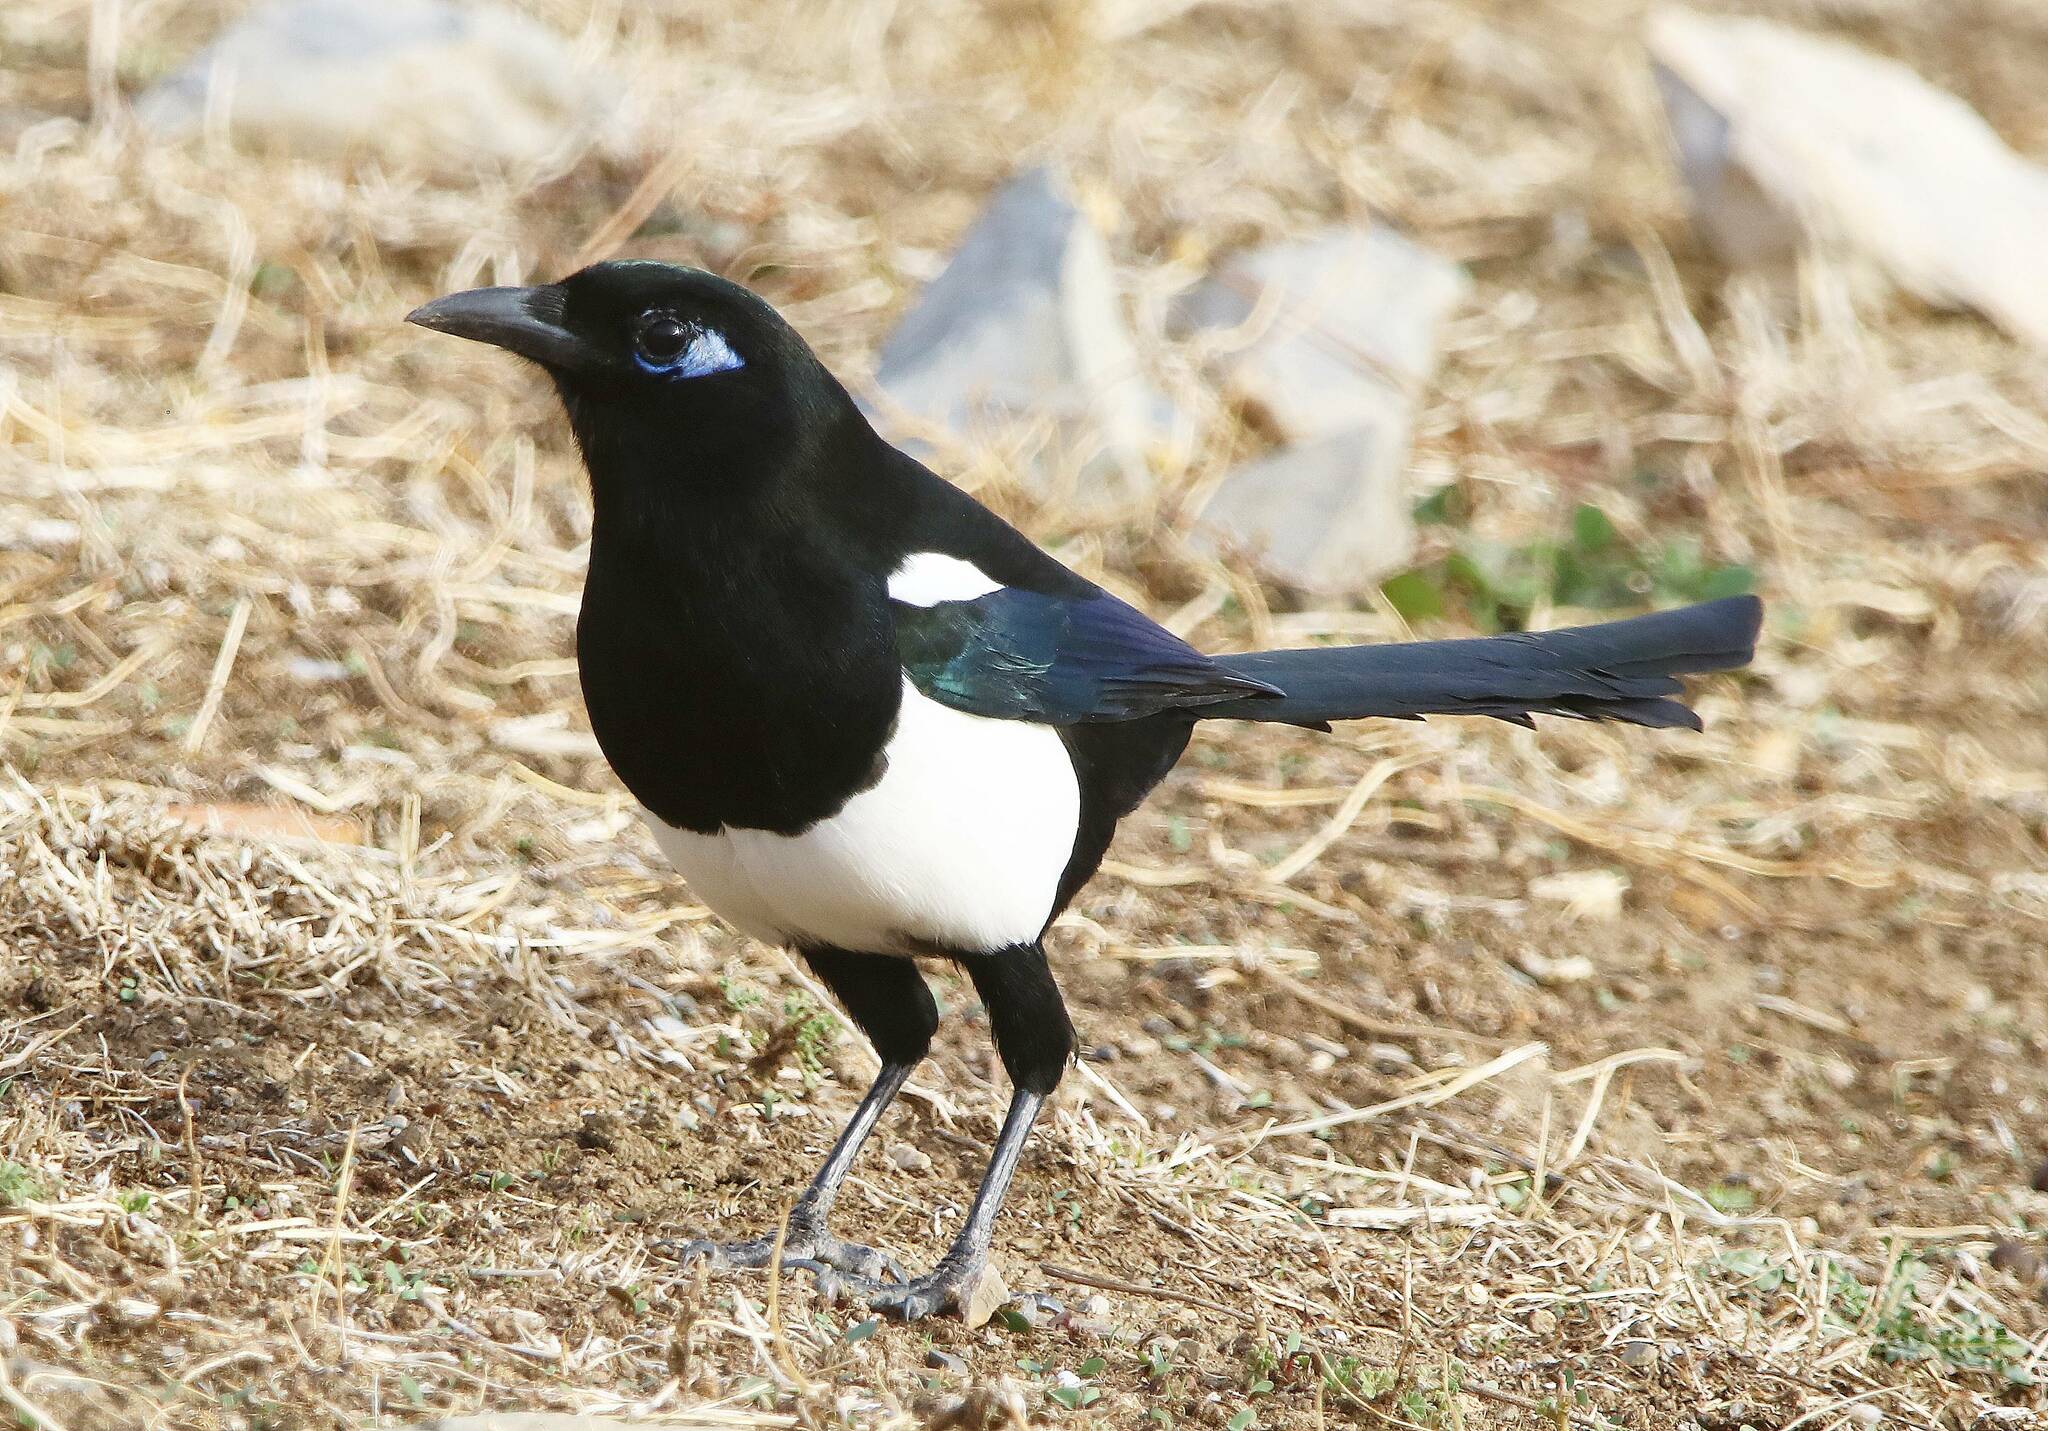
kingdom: Animalia
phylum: Chordata
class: Aves
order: Passeriformes
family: Corvidae
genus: Pica
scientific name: Pica mauritanica
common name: Maghreb magpie
